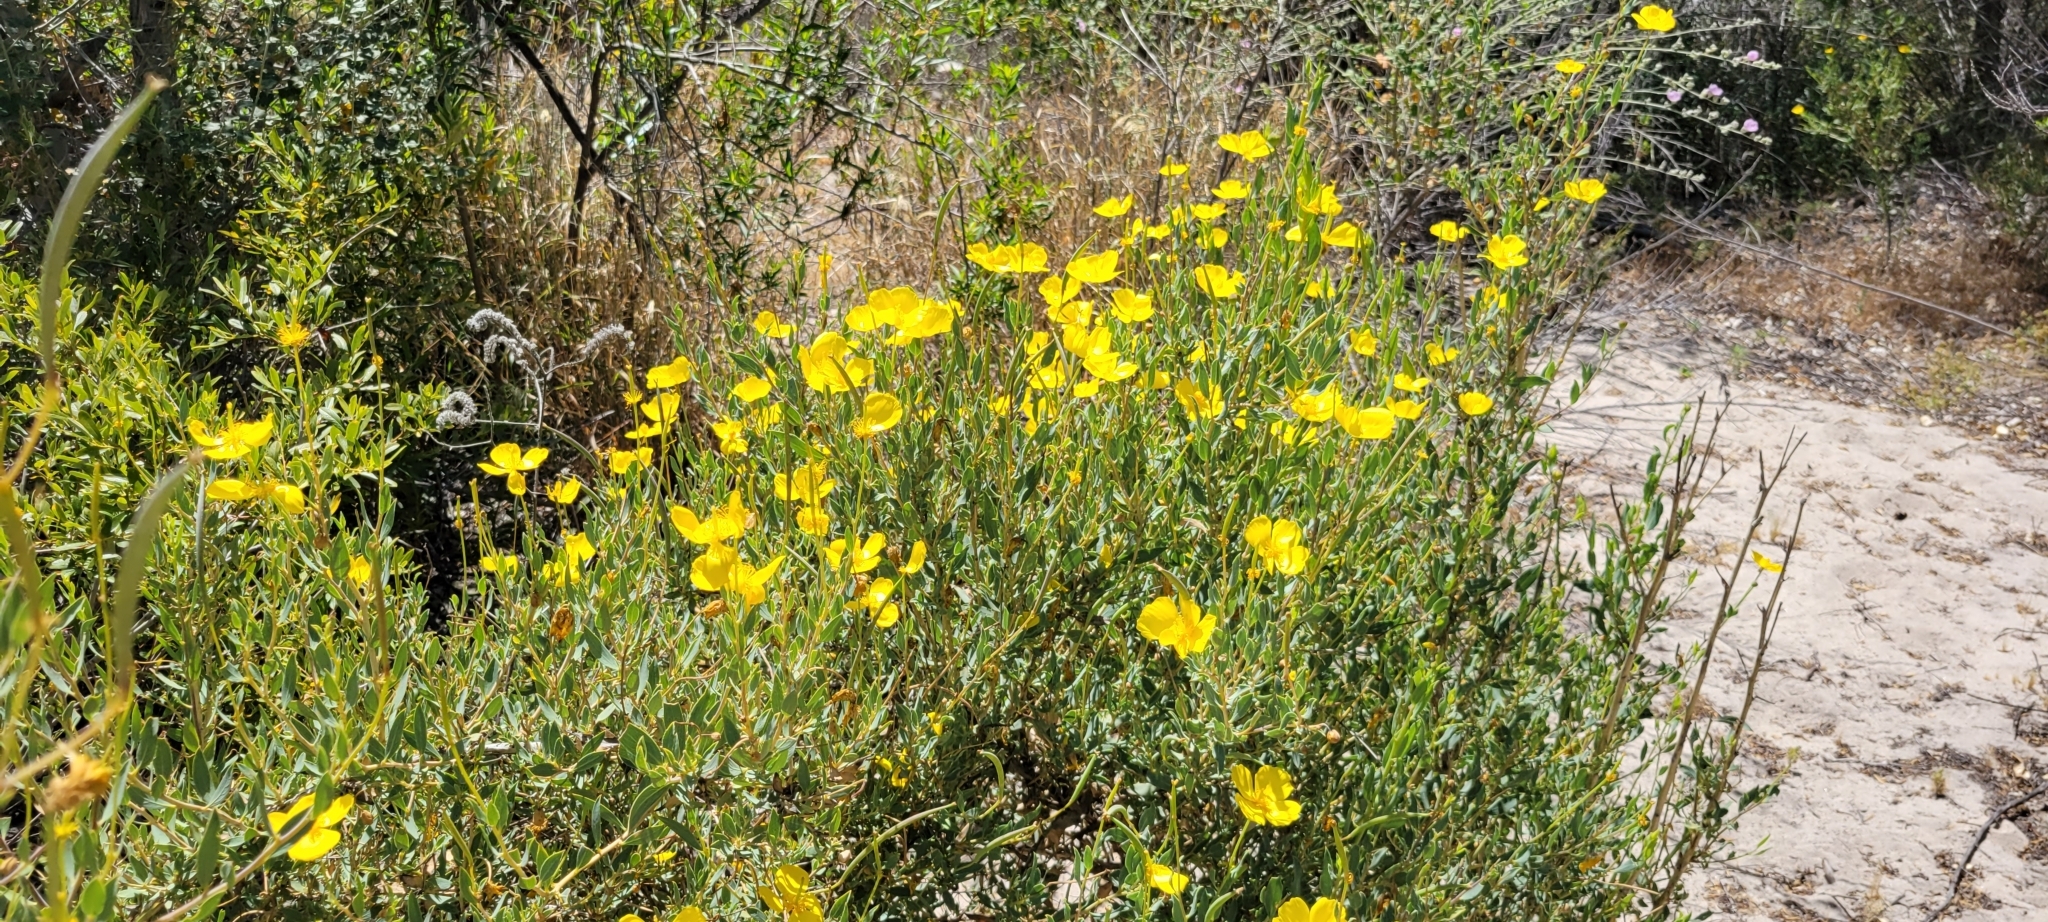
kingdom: Plantae
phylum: Tracheophyta
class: Magnoliopsida
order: Ranunculales
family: Papaveraceae
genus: Dendromecon
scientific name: Dendromecon rigida
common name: Tree poppy
